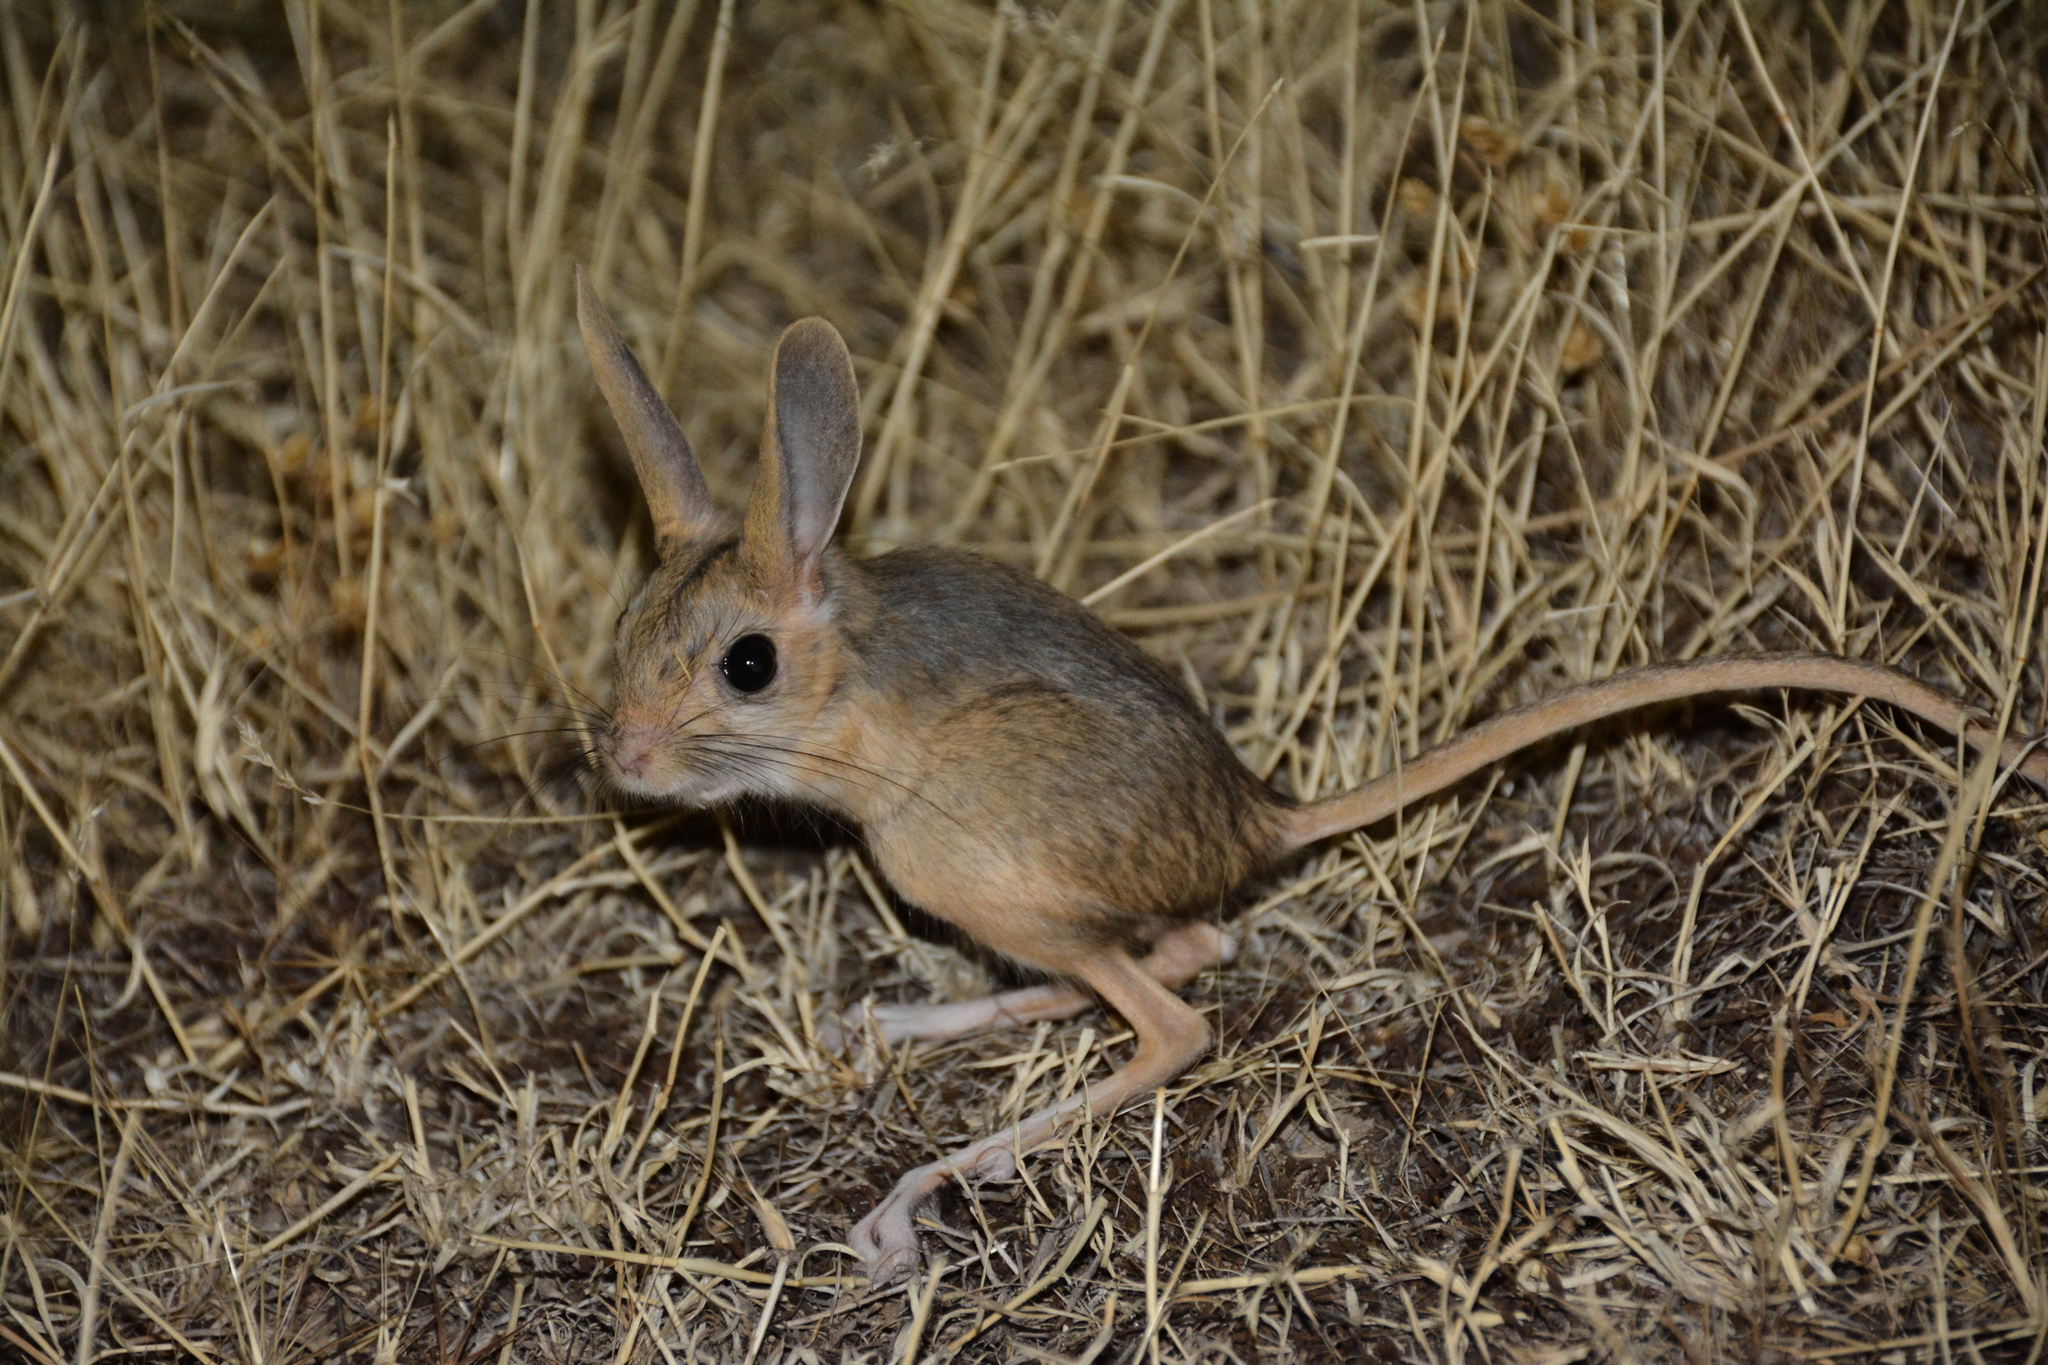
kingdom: Animalia
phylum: Chordata
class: Mammalia
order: Rodentia
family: Dipodidae
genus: Allactaga
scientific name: Allactaga williamsi
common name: Williams s jerboa
